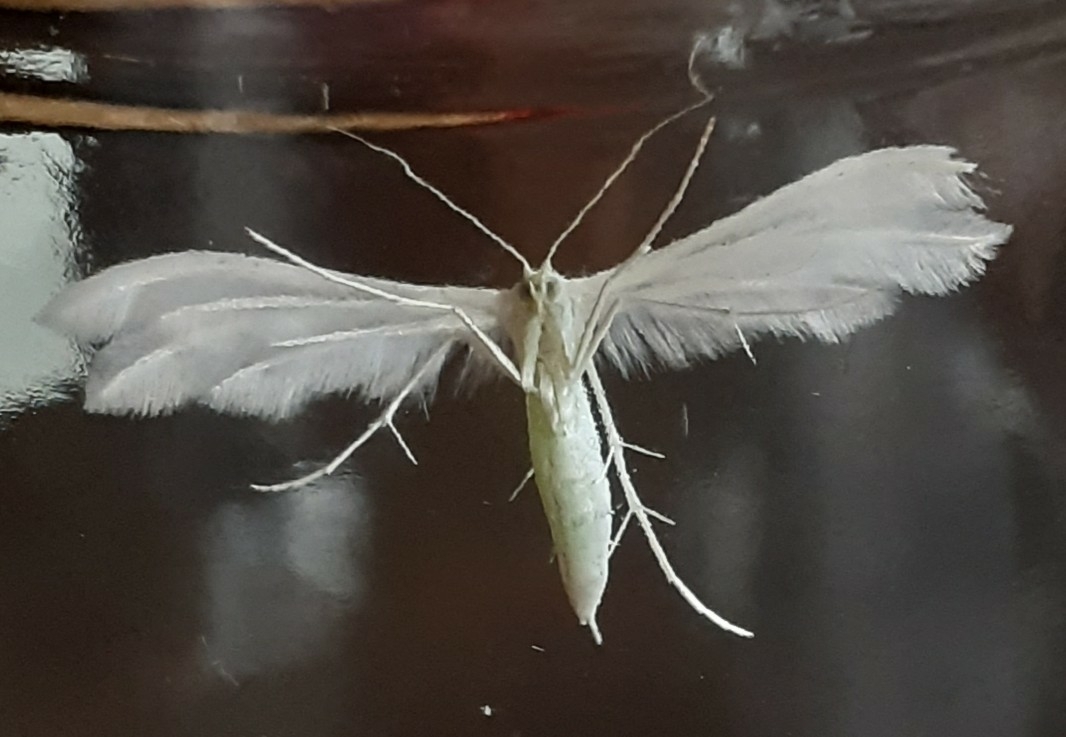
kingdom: Animalia
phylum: Arthropoda
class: Insecta
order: Lepidoptera
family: Pterophoridae
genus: Pterophorus
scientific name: Pterophorus pentadactyla
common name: White plume moth
